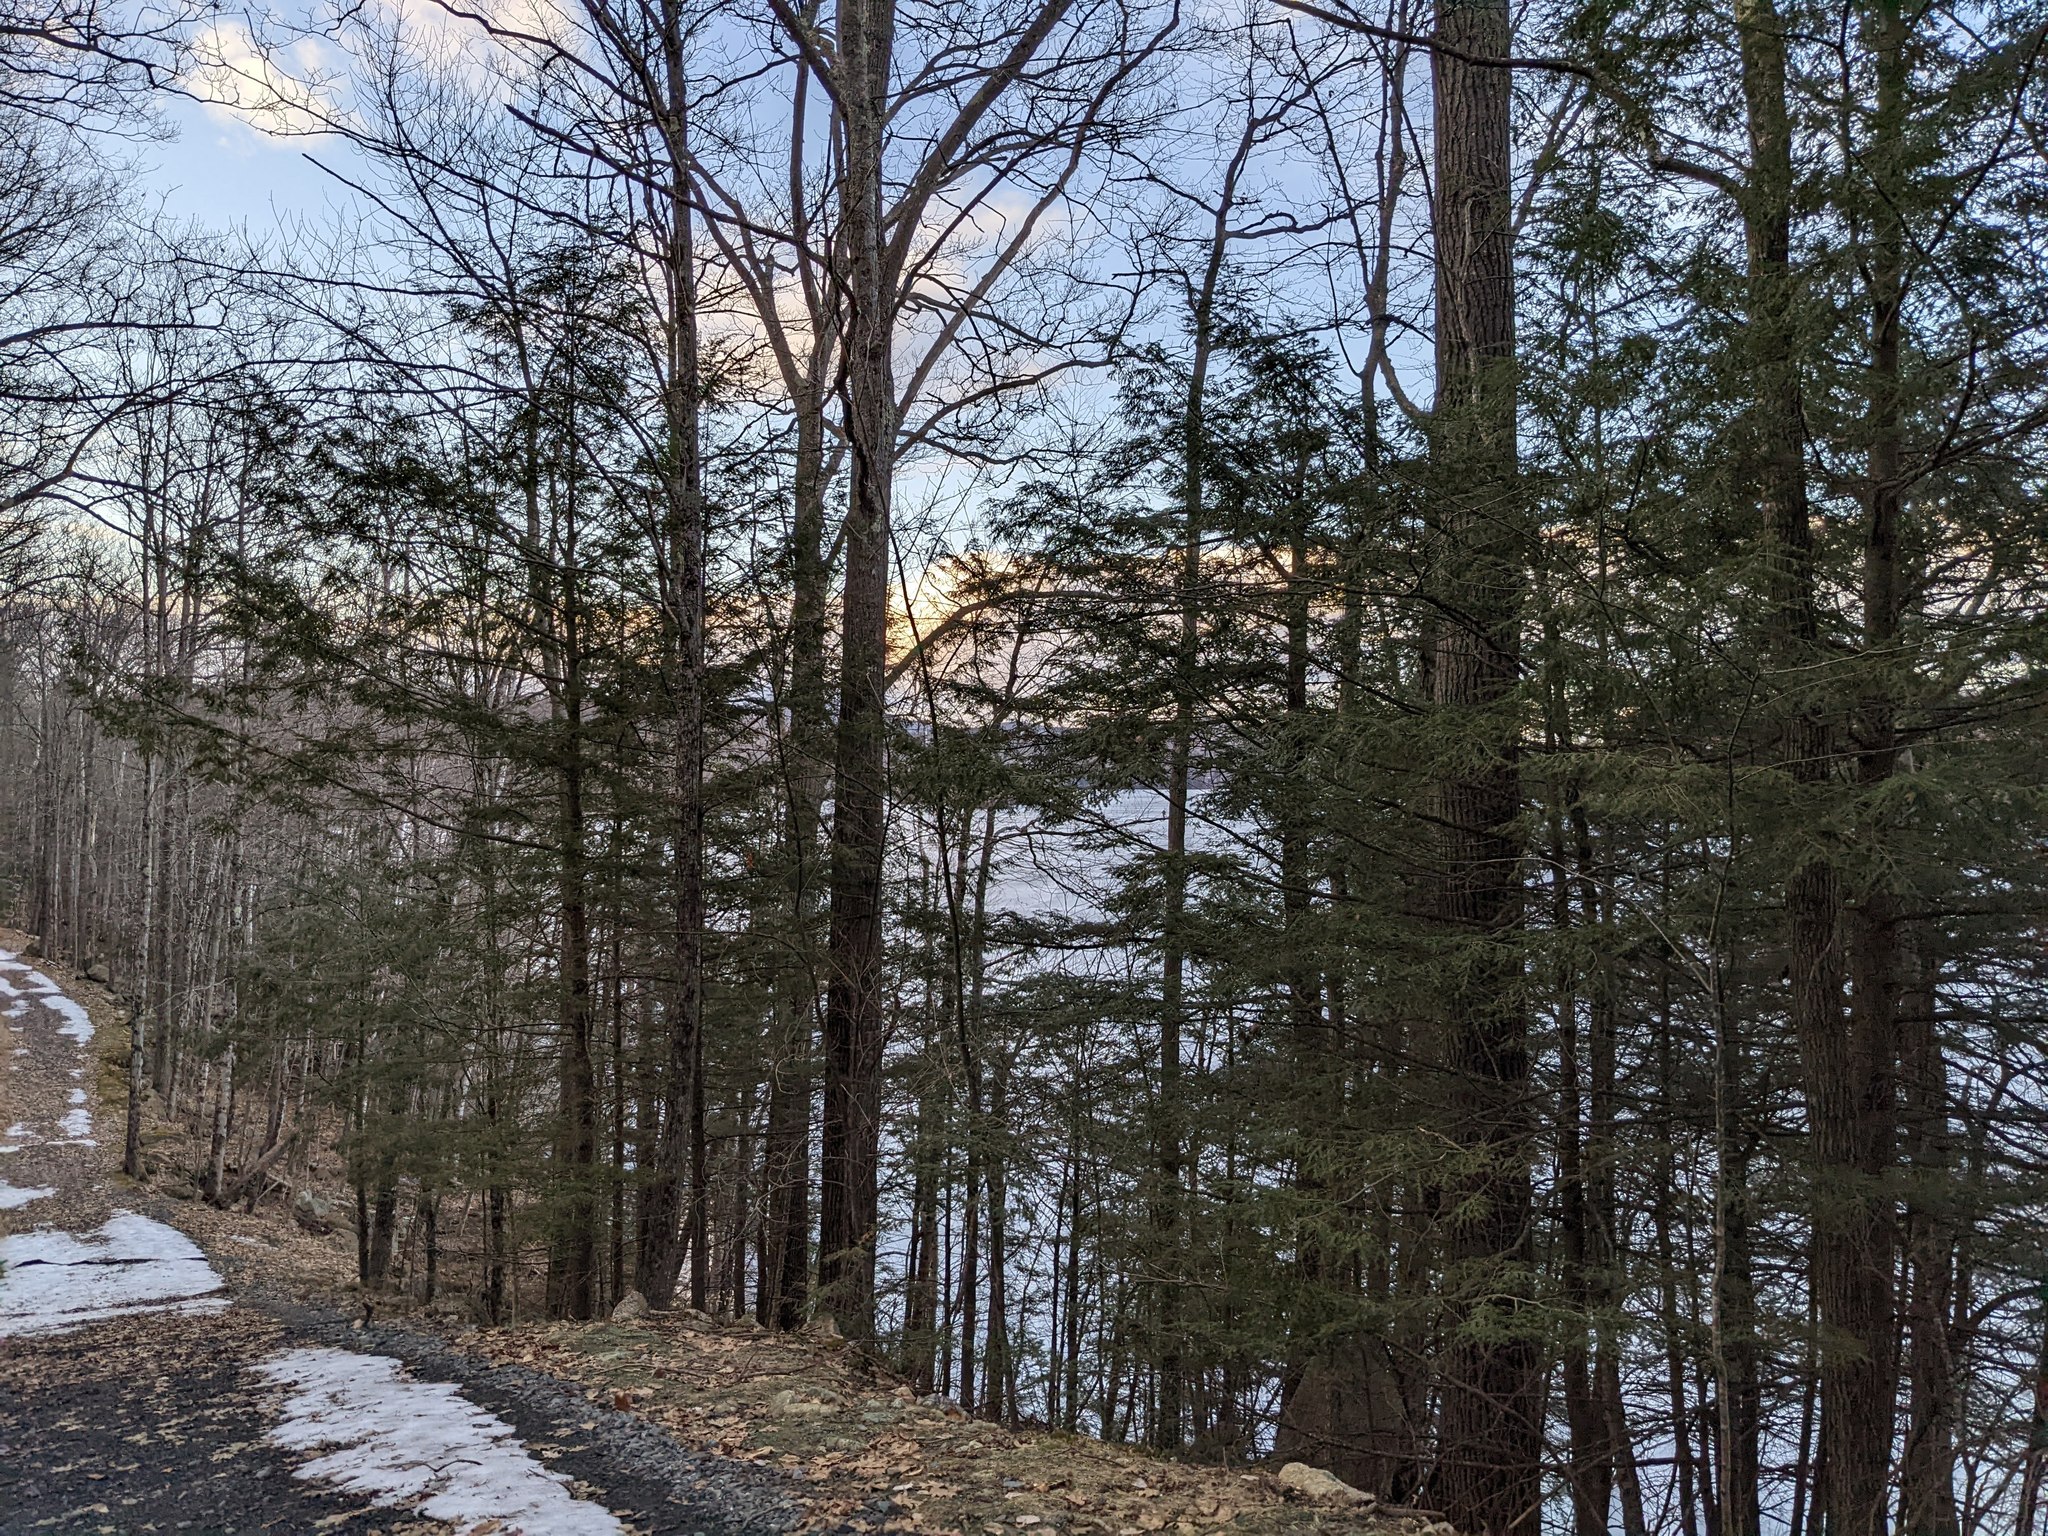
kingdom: Plantae
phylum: Tracheophyta
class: Pinopsida
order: Pinales
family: Pinaceae
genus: Tsuga
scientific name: Tsuga canadensis
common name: Eastern hemlock
